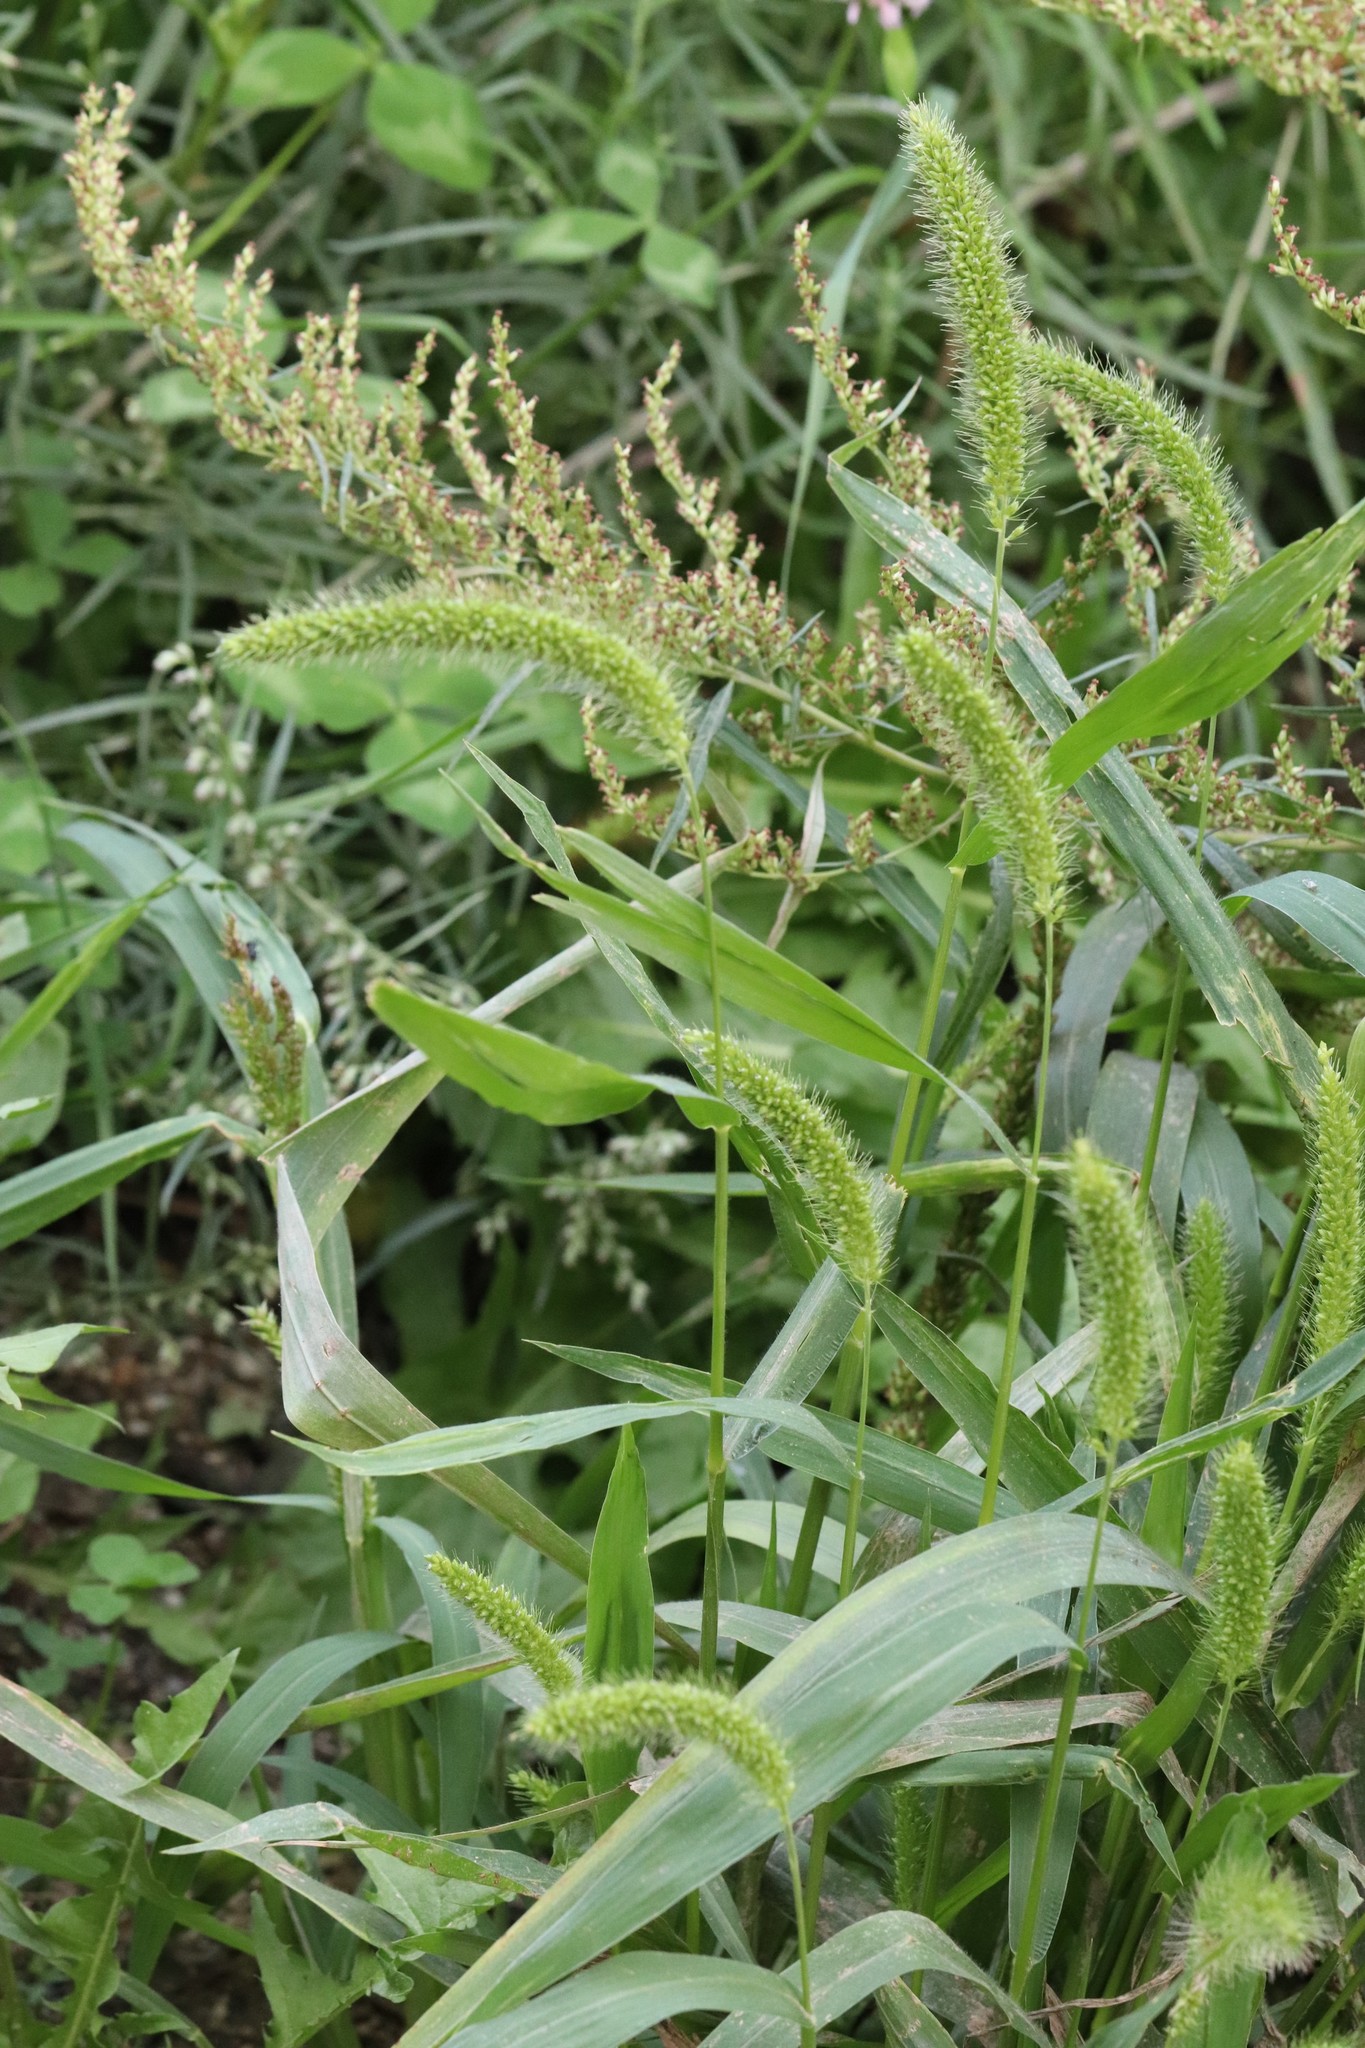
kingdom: Plantae
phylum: Tracheophyta
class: Liliopsida
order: Poales
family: Poaceae
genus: Setaria
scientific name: Setaria viridis
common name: Green bristlegrass
